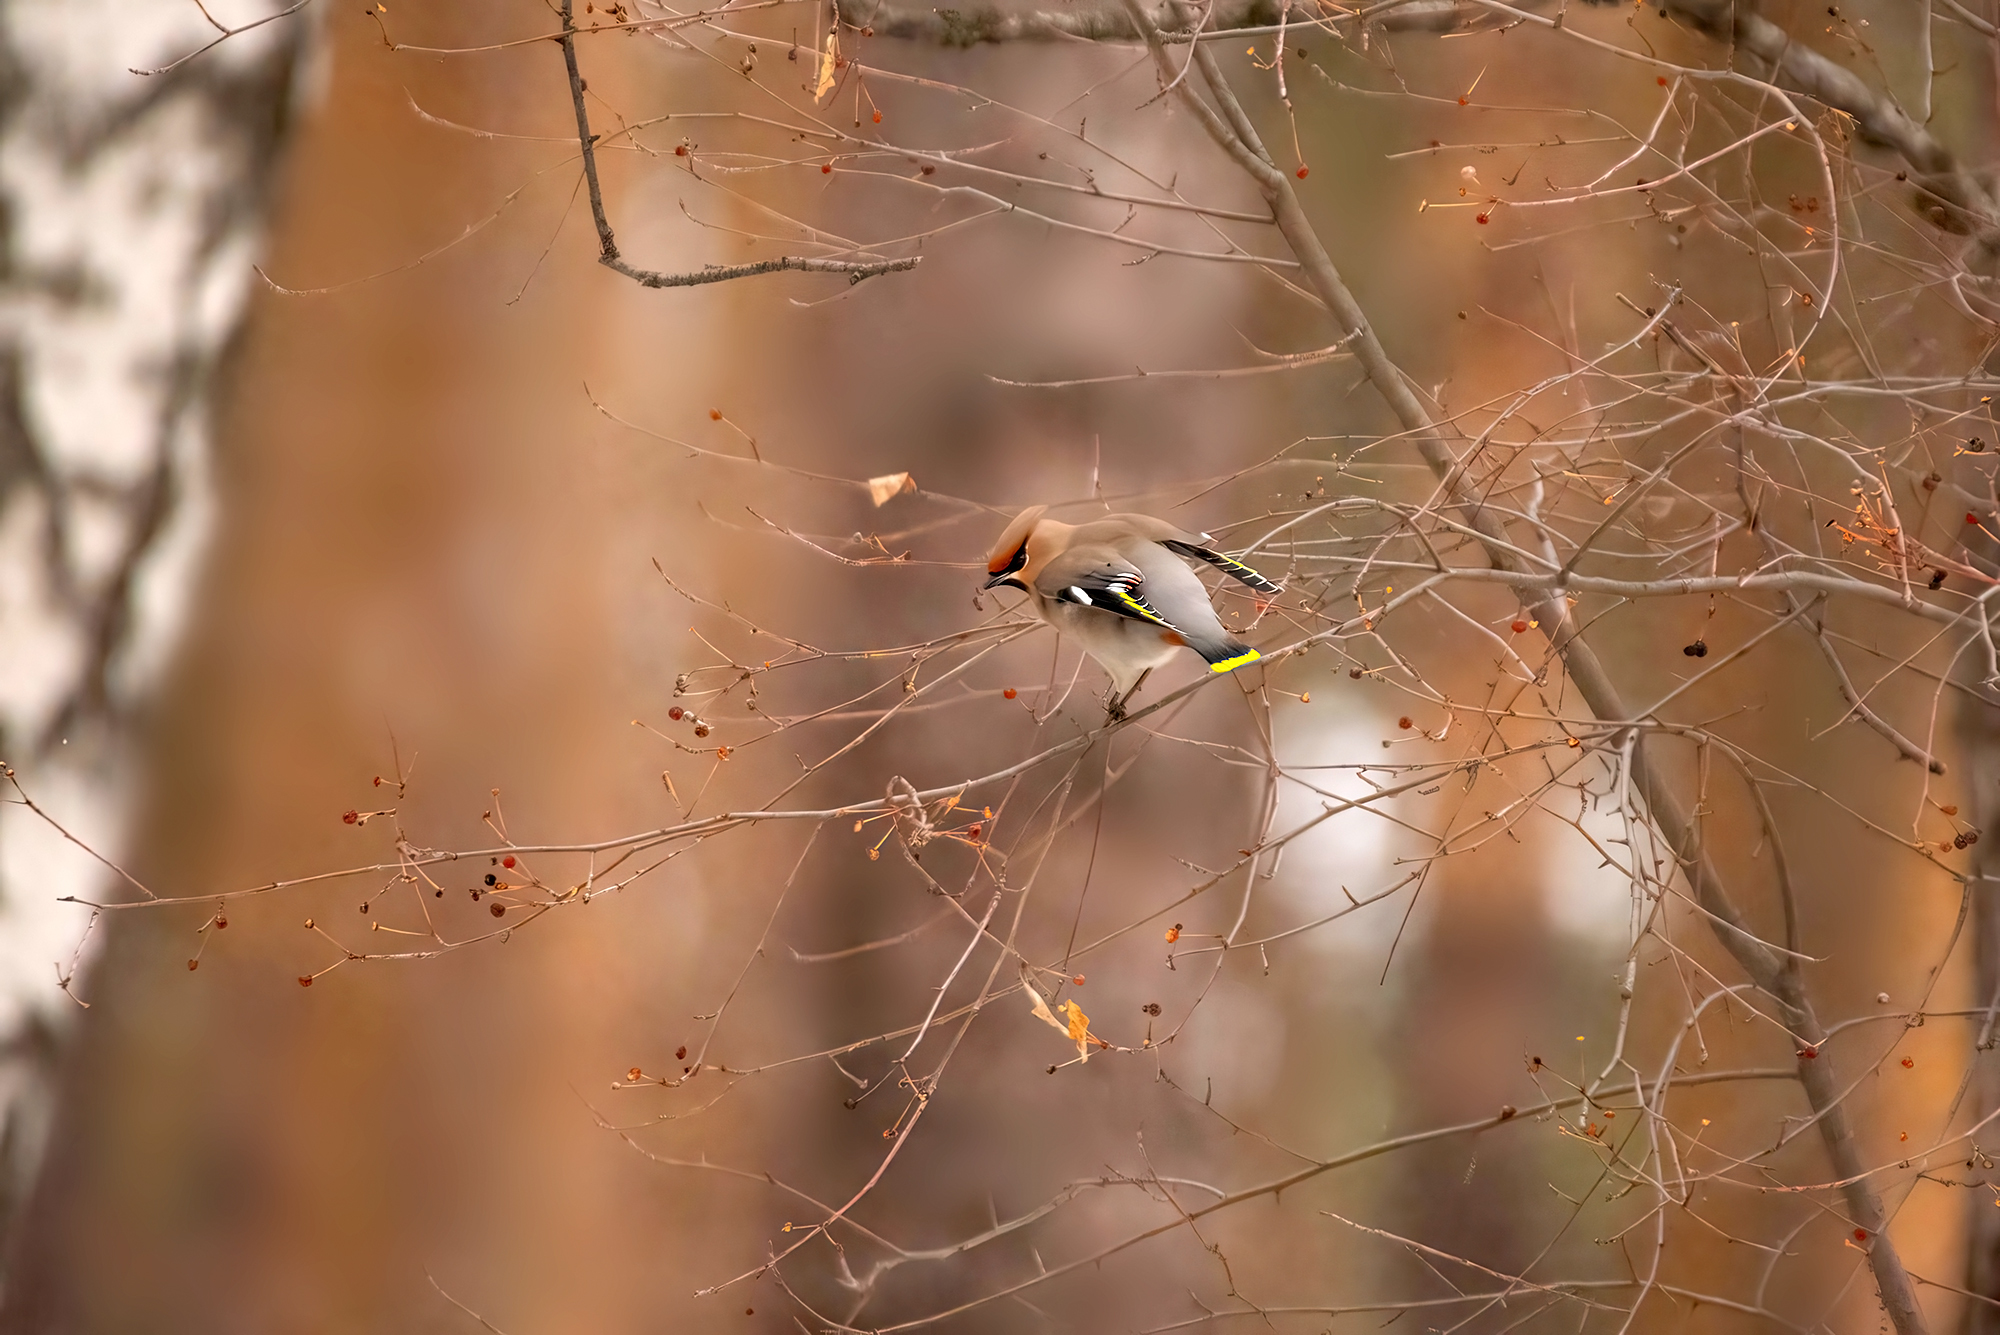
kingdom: Animalia
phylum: Chordata
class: Aves
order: Passeriformes
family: Bombycillidae
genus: Bombycilla
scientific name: Bombycilla garrulus
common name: Bohemian waxwing
